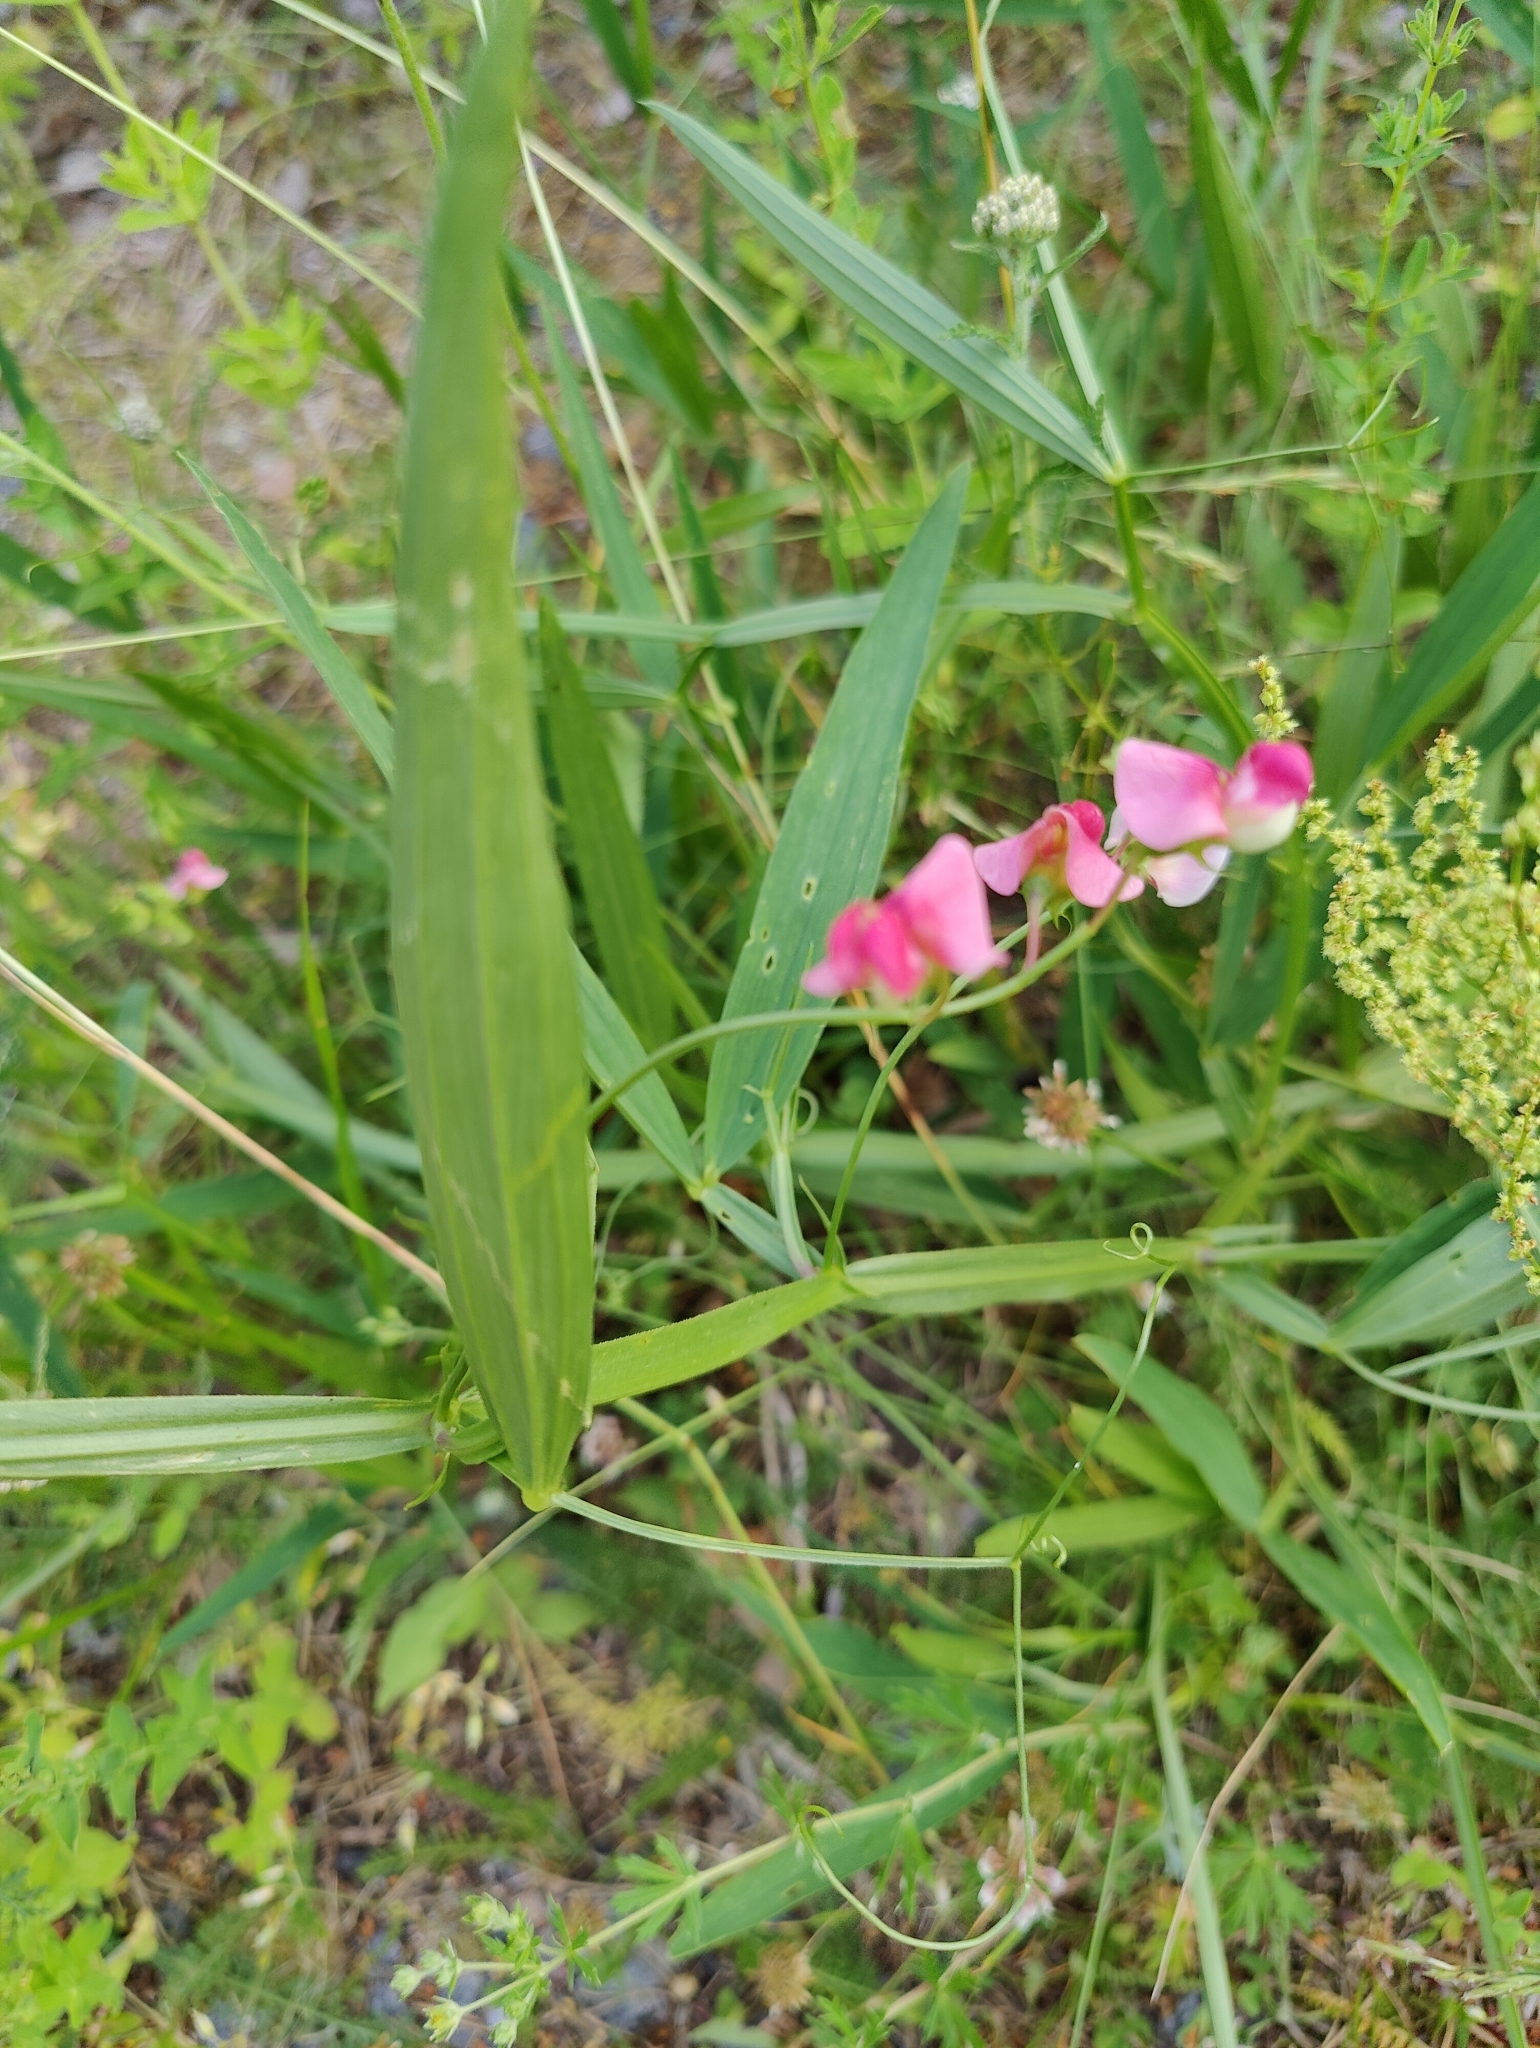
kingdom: Plantae
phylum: Tracheophyta
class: Magnoliopsida
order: Fabales
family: Fabaceae
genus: Lathyrus
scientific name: Lathyrus sylvestris
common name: Flat pea
